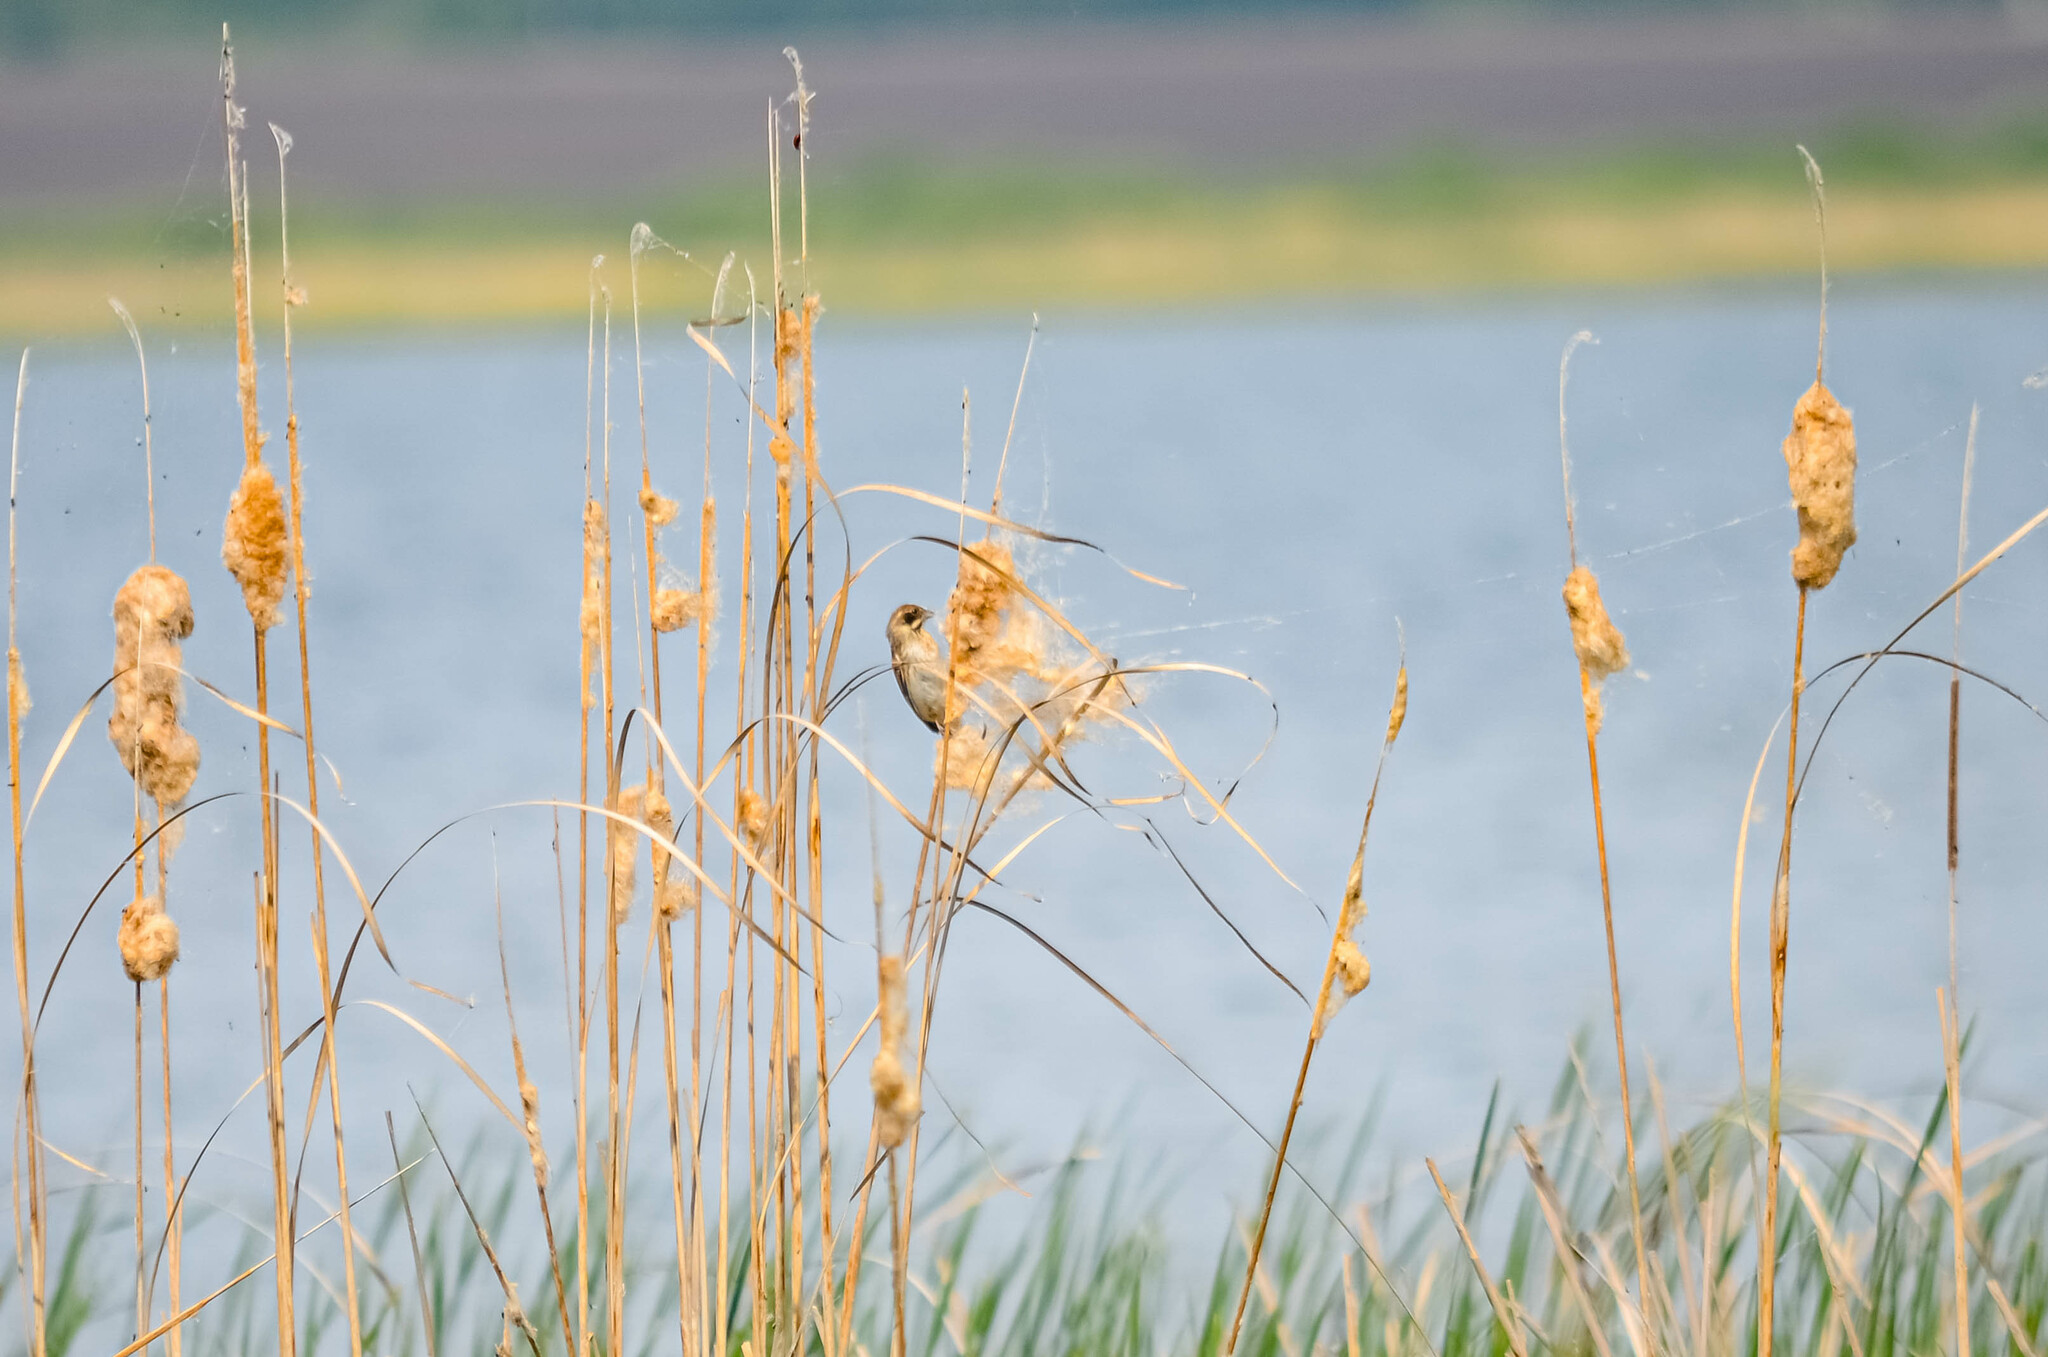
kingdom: Animalia
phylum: Chordata
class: Aves
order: Passeriformes
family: Emberizidae
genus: Emberiza
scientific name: Emberiza schoeniclus
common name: Reed bunting
